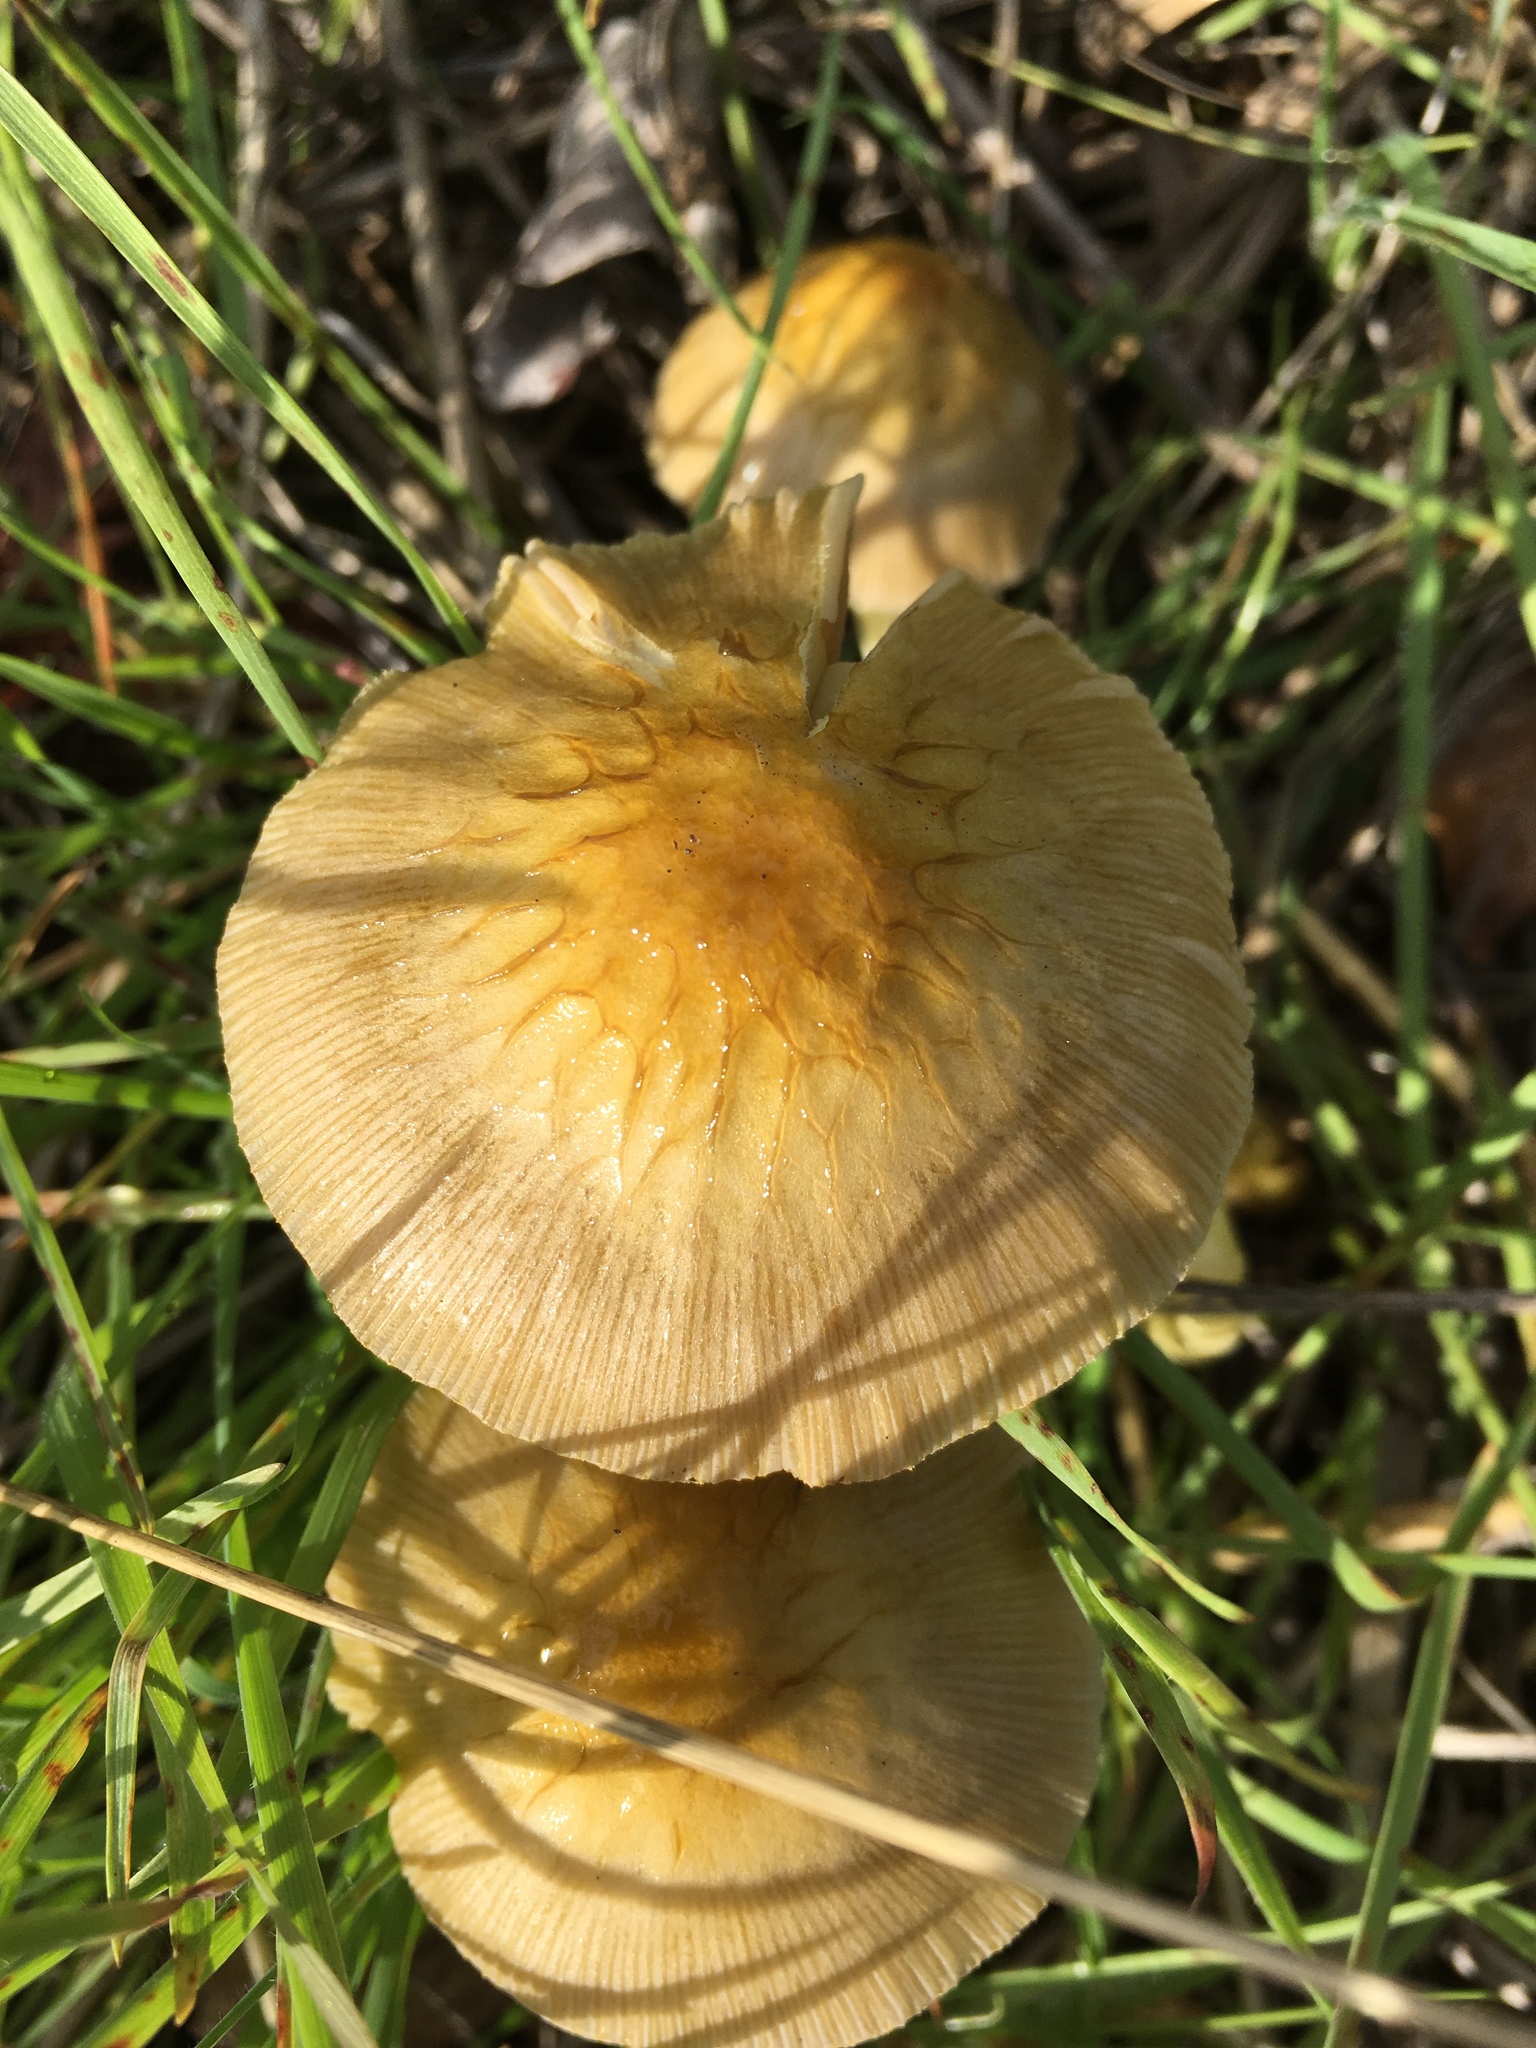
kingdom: Fungi
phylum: Basidiomycota
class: Agaricomycetes
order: Agaricales
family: Bolbitiaceae
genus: Bolbitius
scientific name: Bolbitius titubans
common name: Yellow fieldcap
